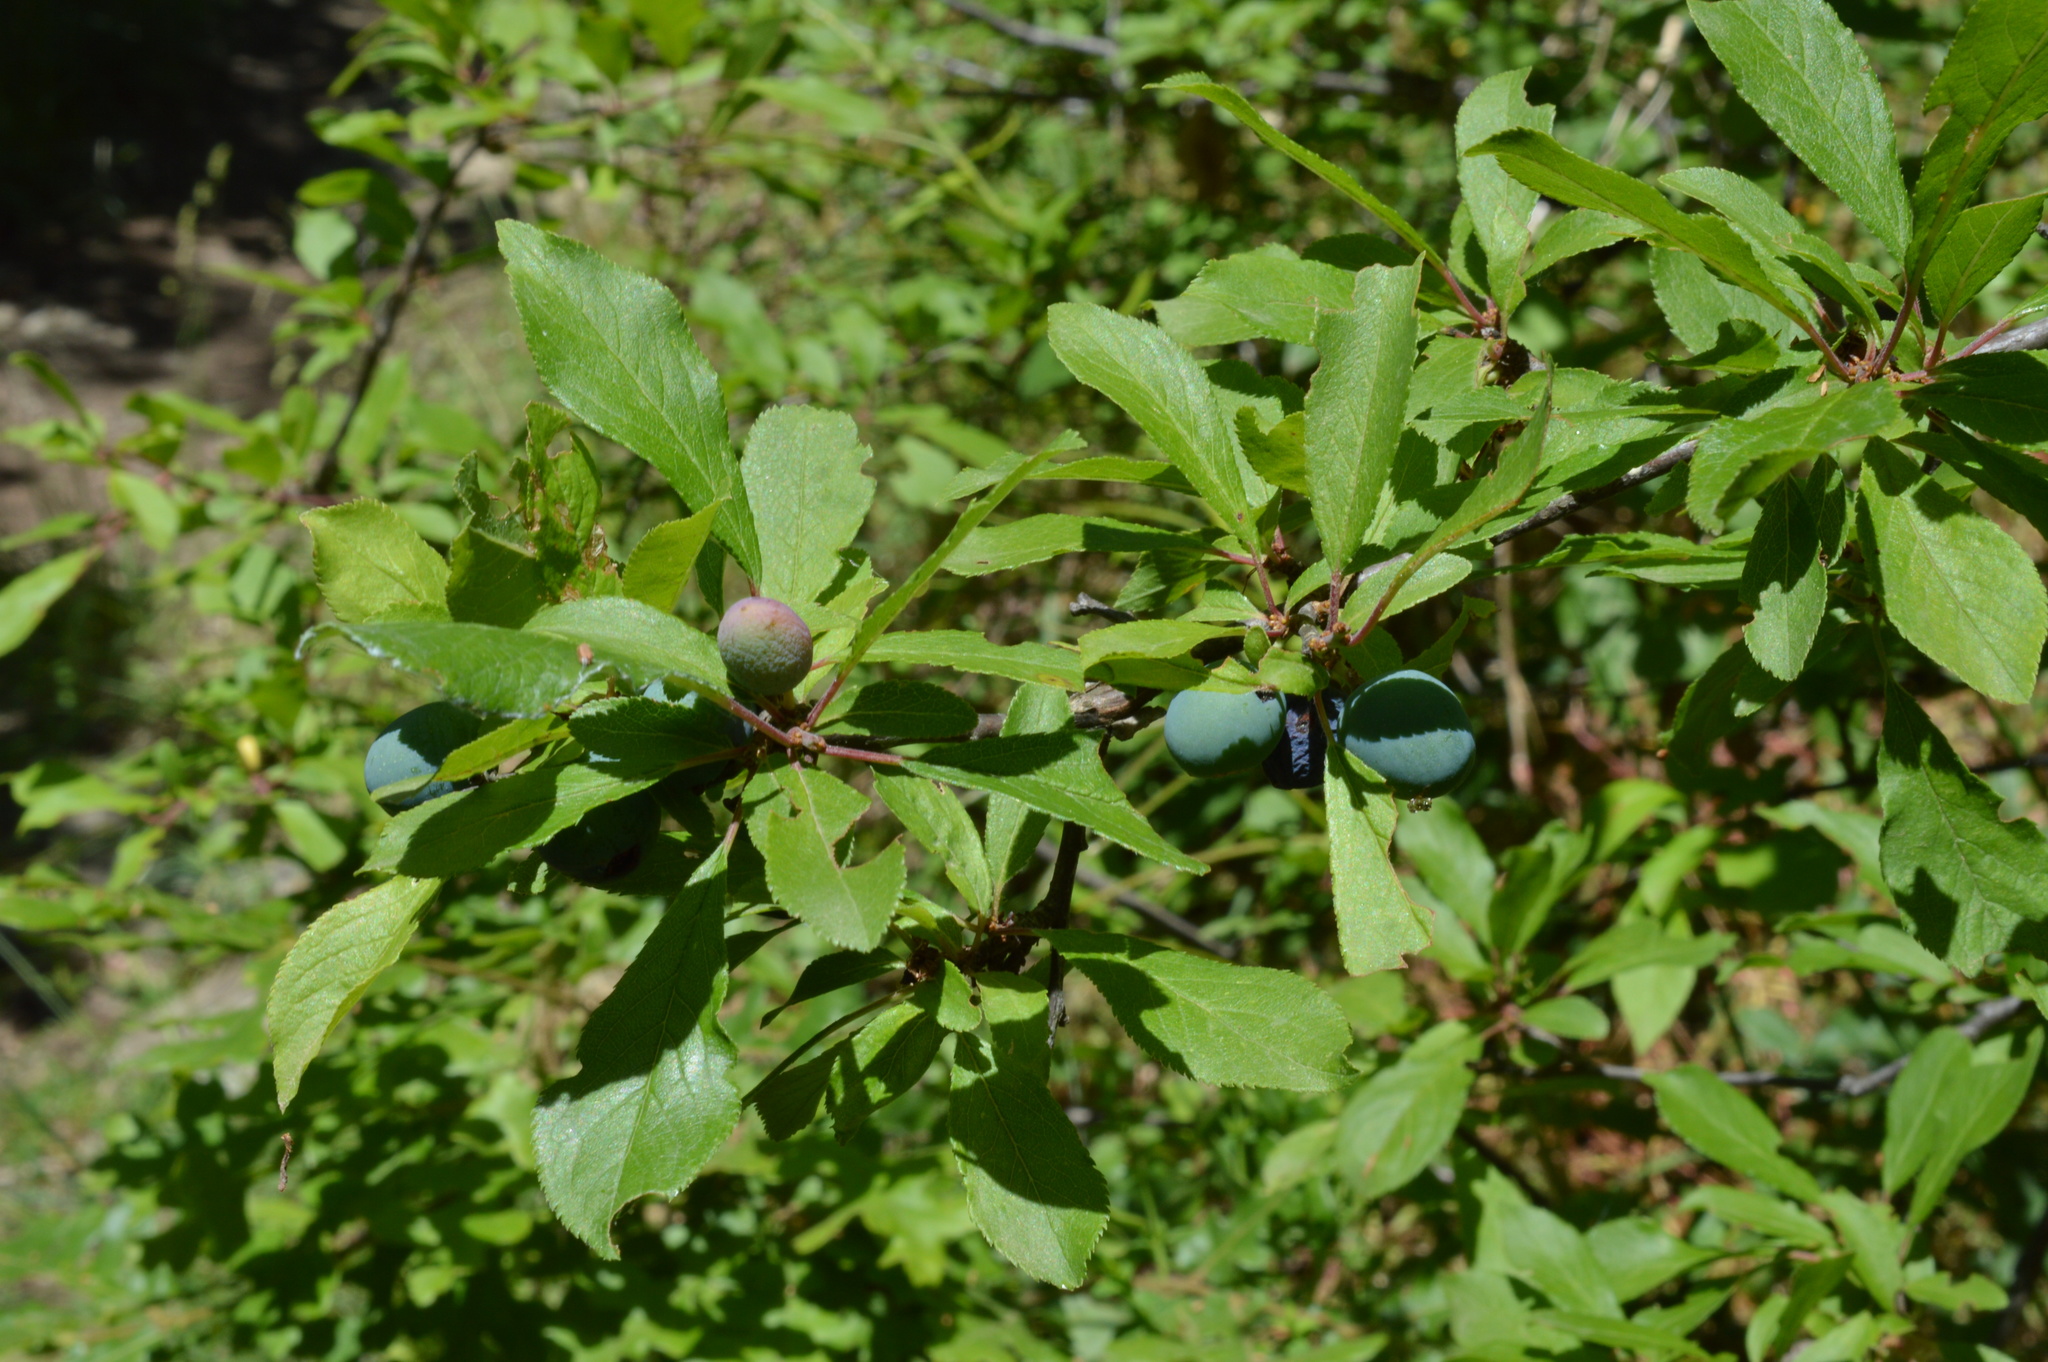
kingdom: Plantae
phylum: Tracheophyta
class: Magnoliopsida
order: Rosales
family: Rosaceae
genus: Prunus
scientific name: Prunus spinosa
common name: Blackthorn
